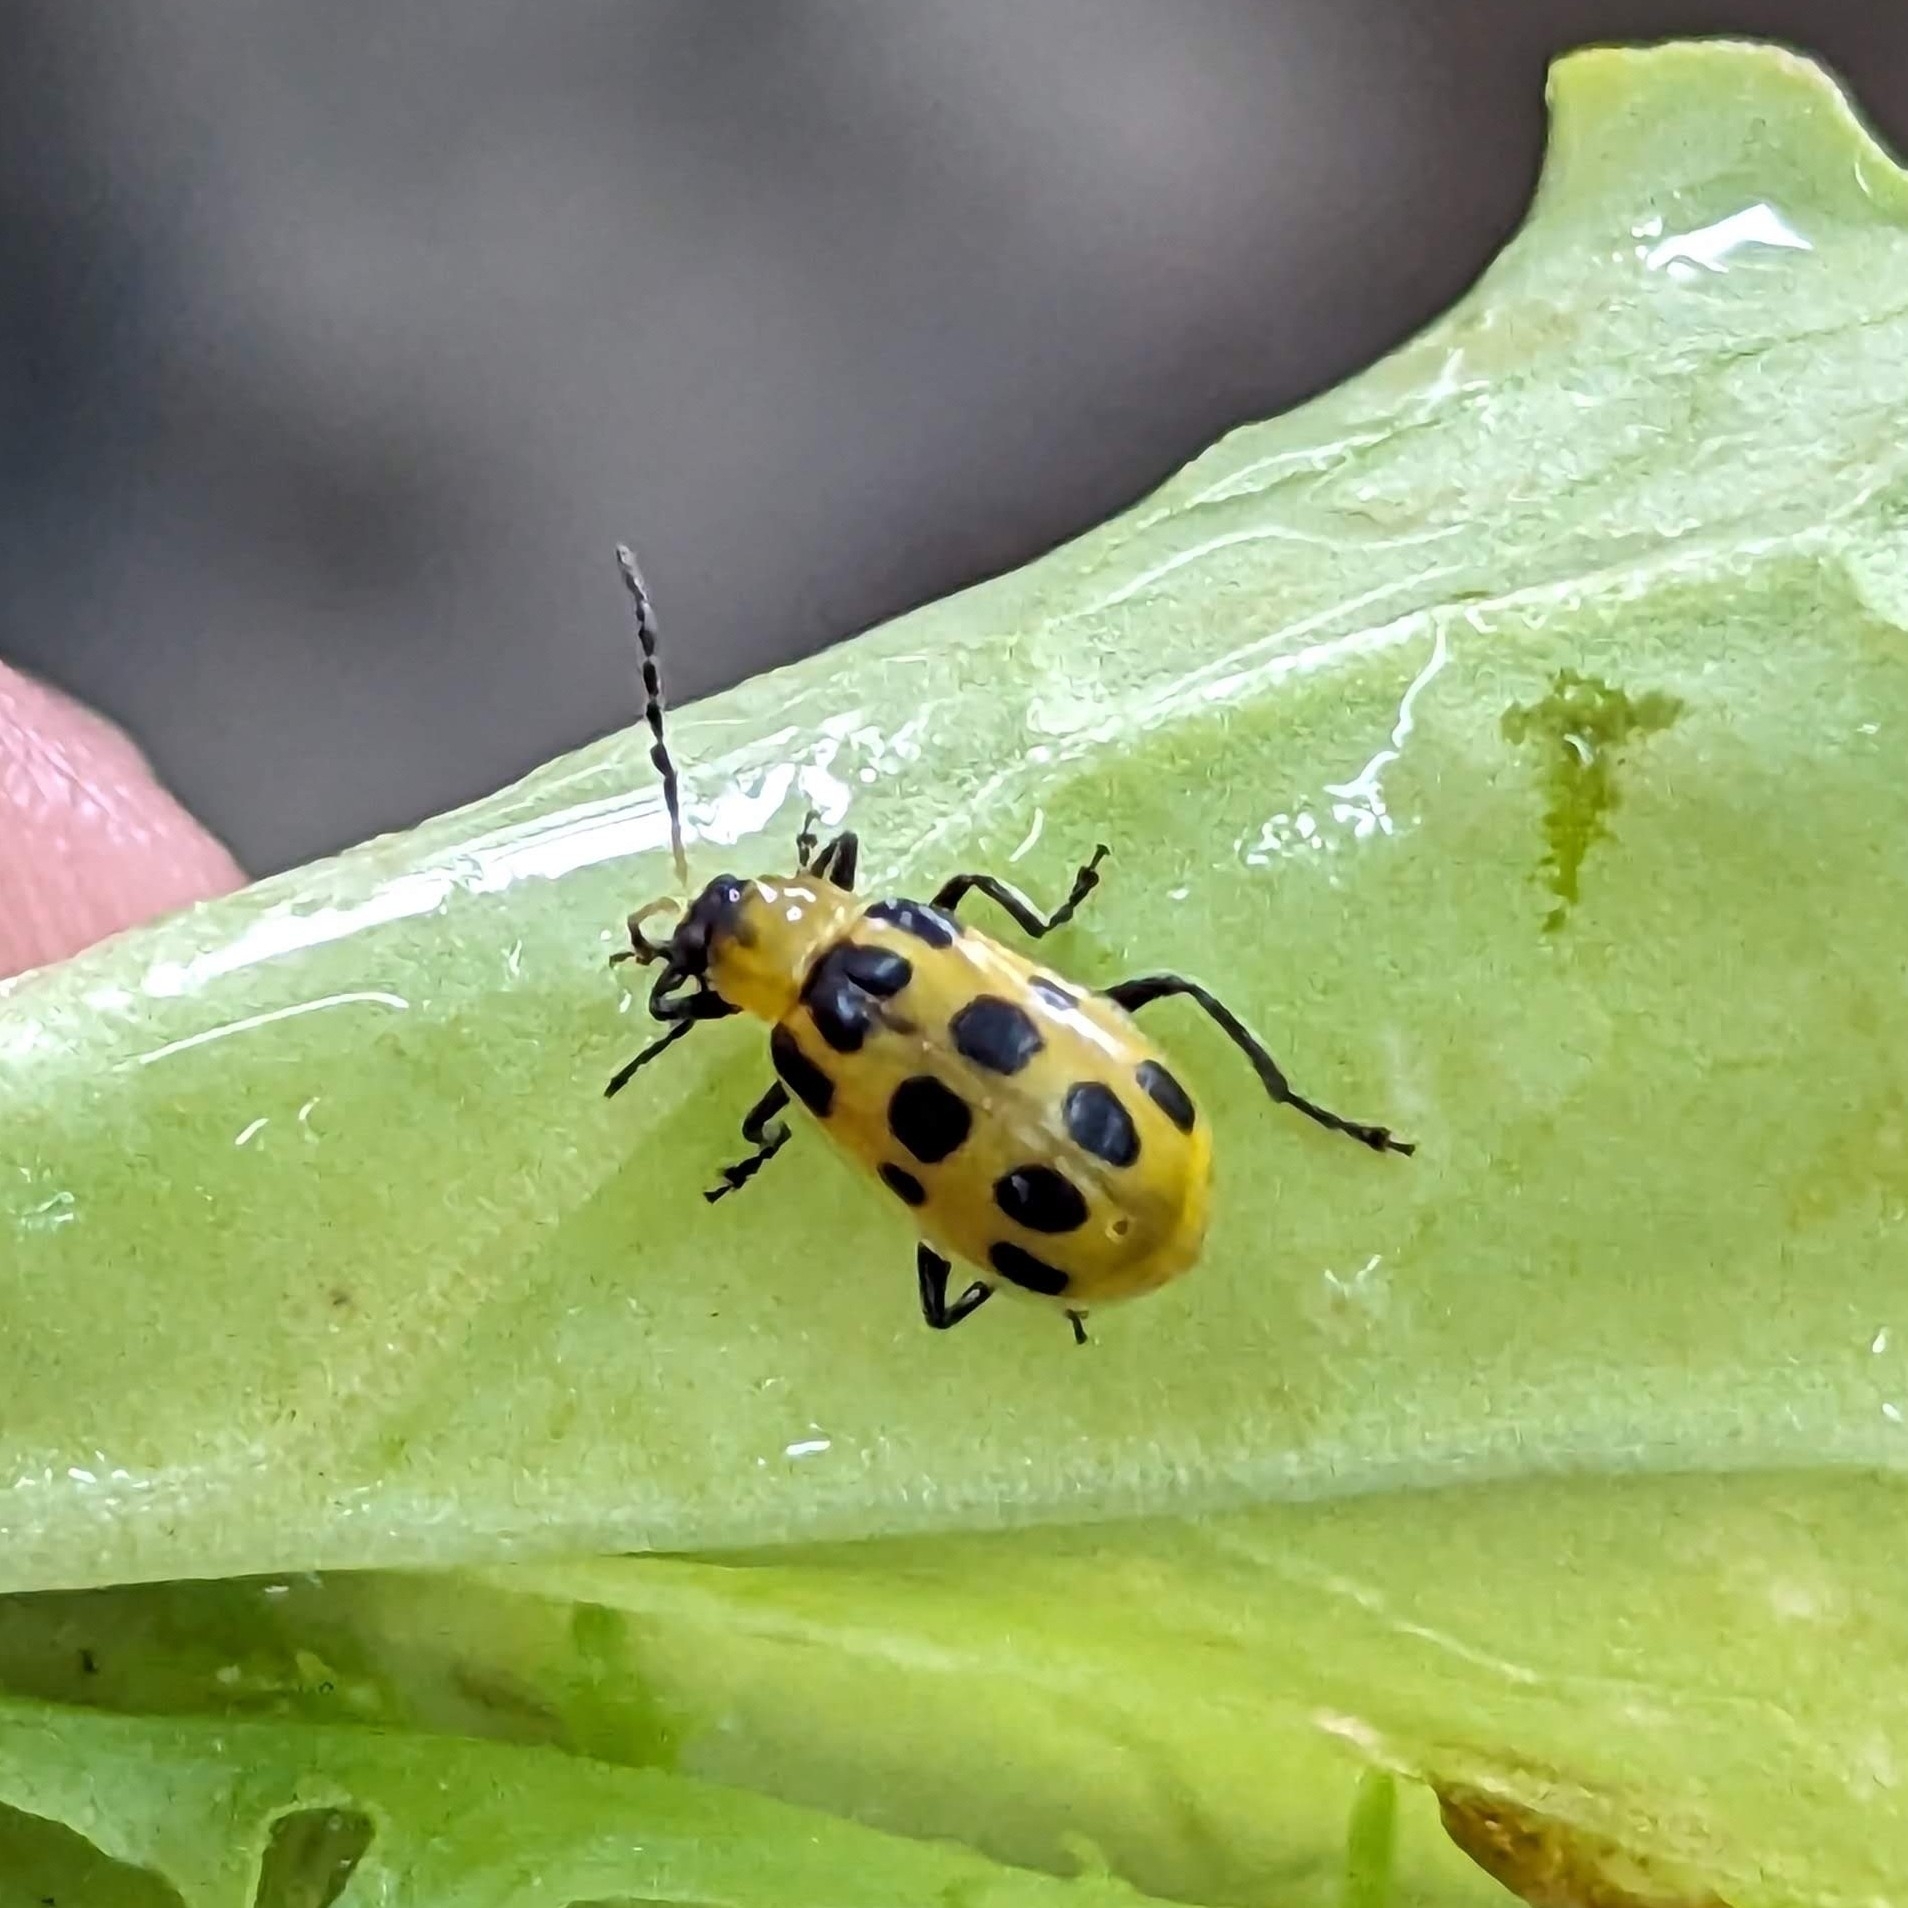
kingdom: Animalia
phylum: Arthropoda
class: Insecta
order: Coleoptera
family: Chrysomelidae
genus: Diabrotica
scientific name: Diabrotica undecimpunctata
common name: Spotted cucumber beetle
